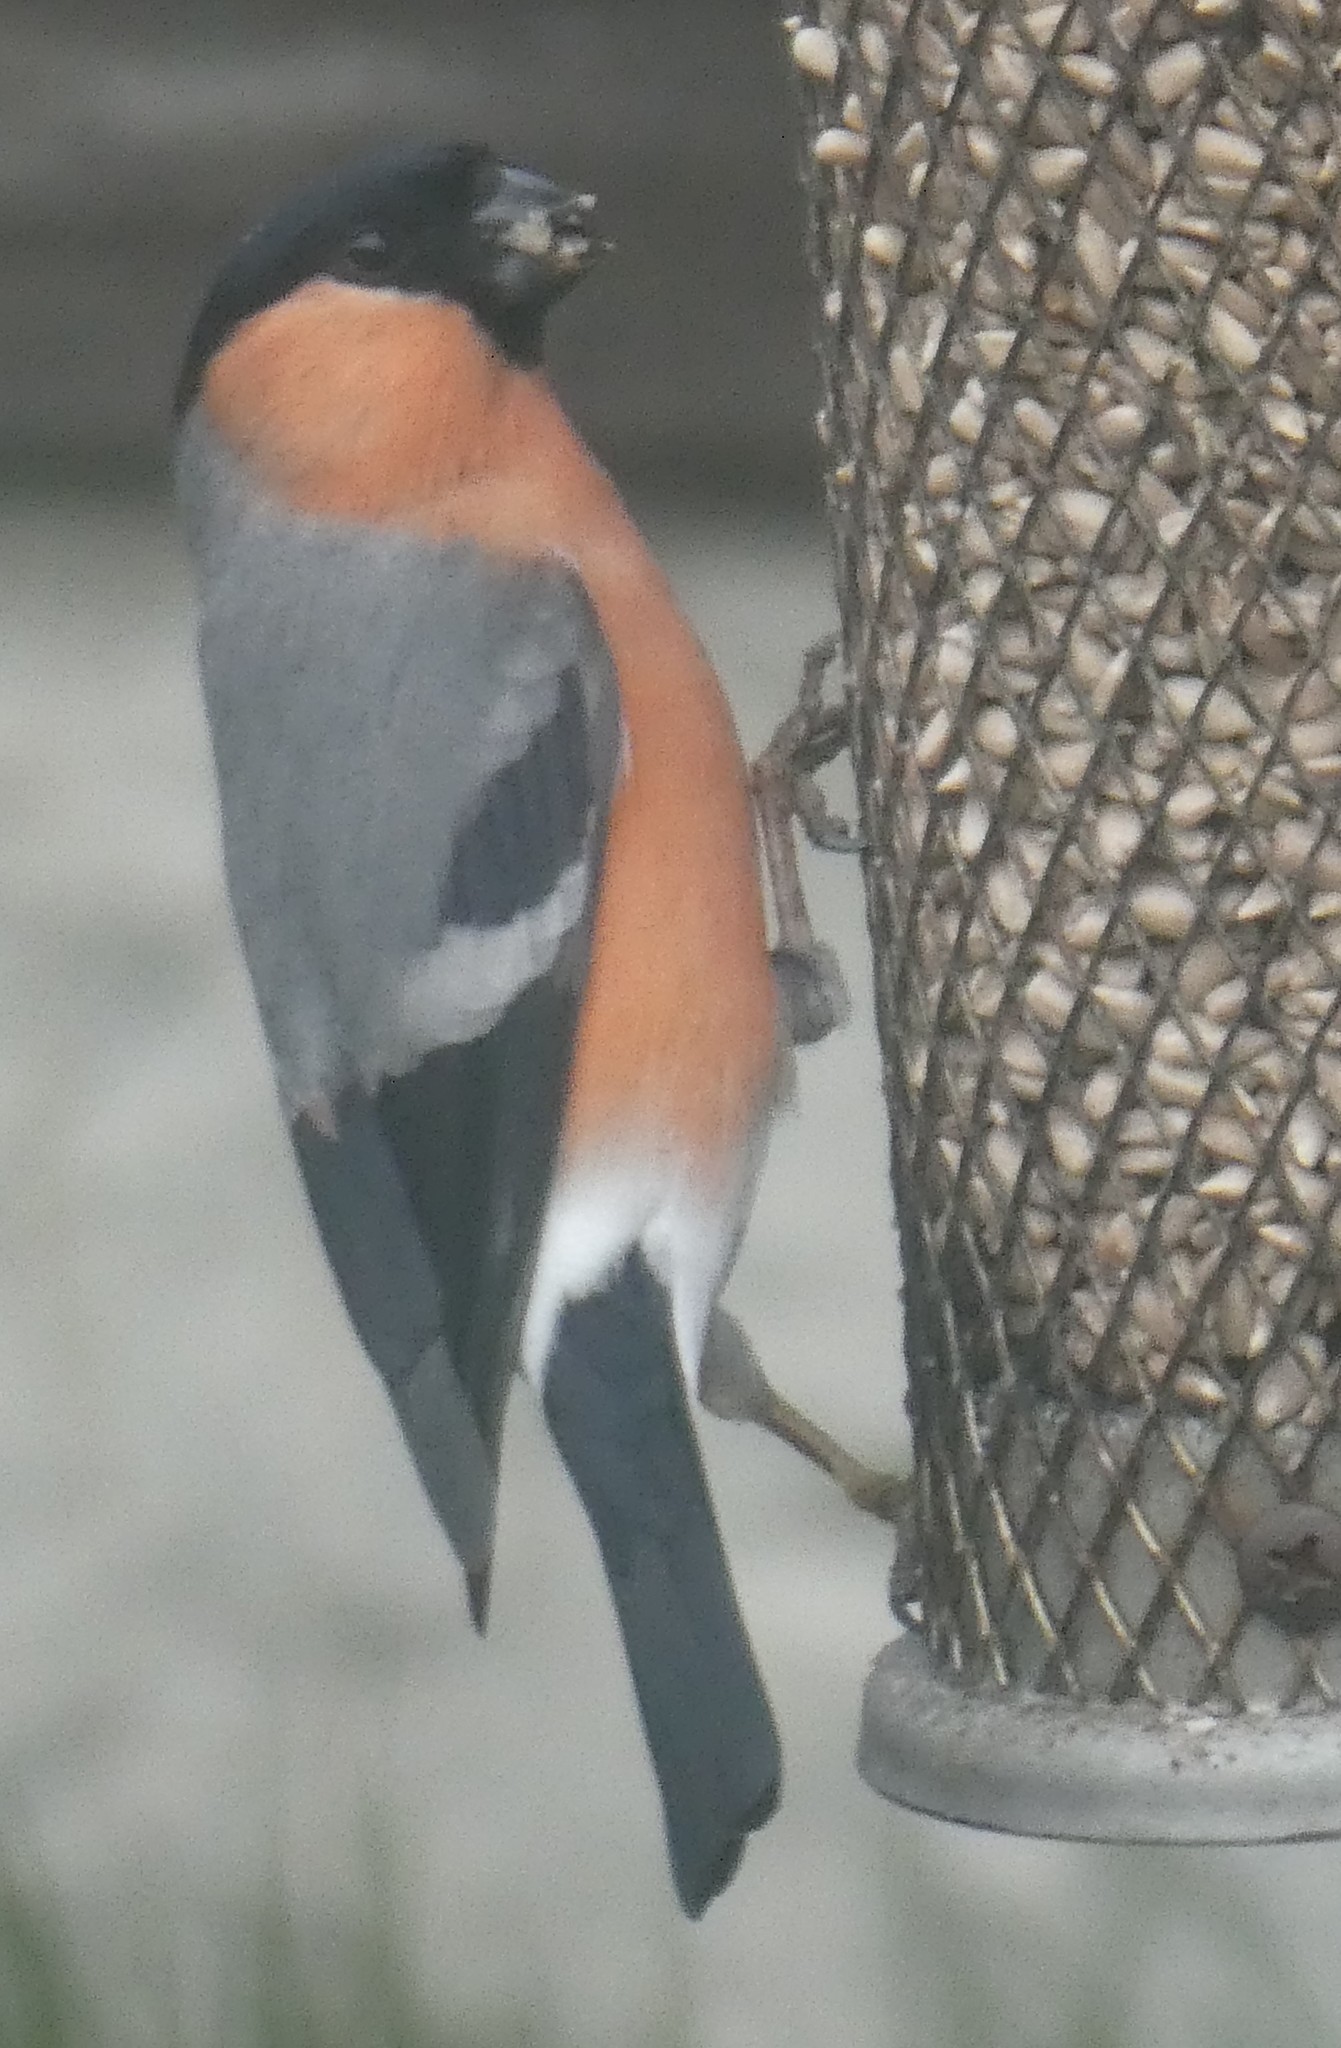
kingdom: Animalia
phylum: Chordata
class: Aves
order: Passeriformes
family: Fringillidae
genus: Pyrrhula
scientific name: Pyrrhula pyrrhula
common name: Eurasian bullfinch
